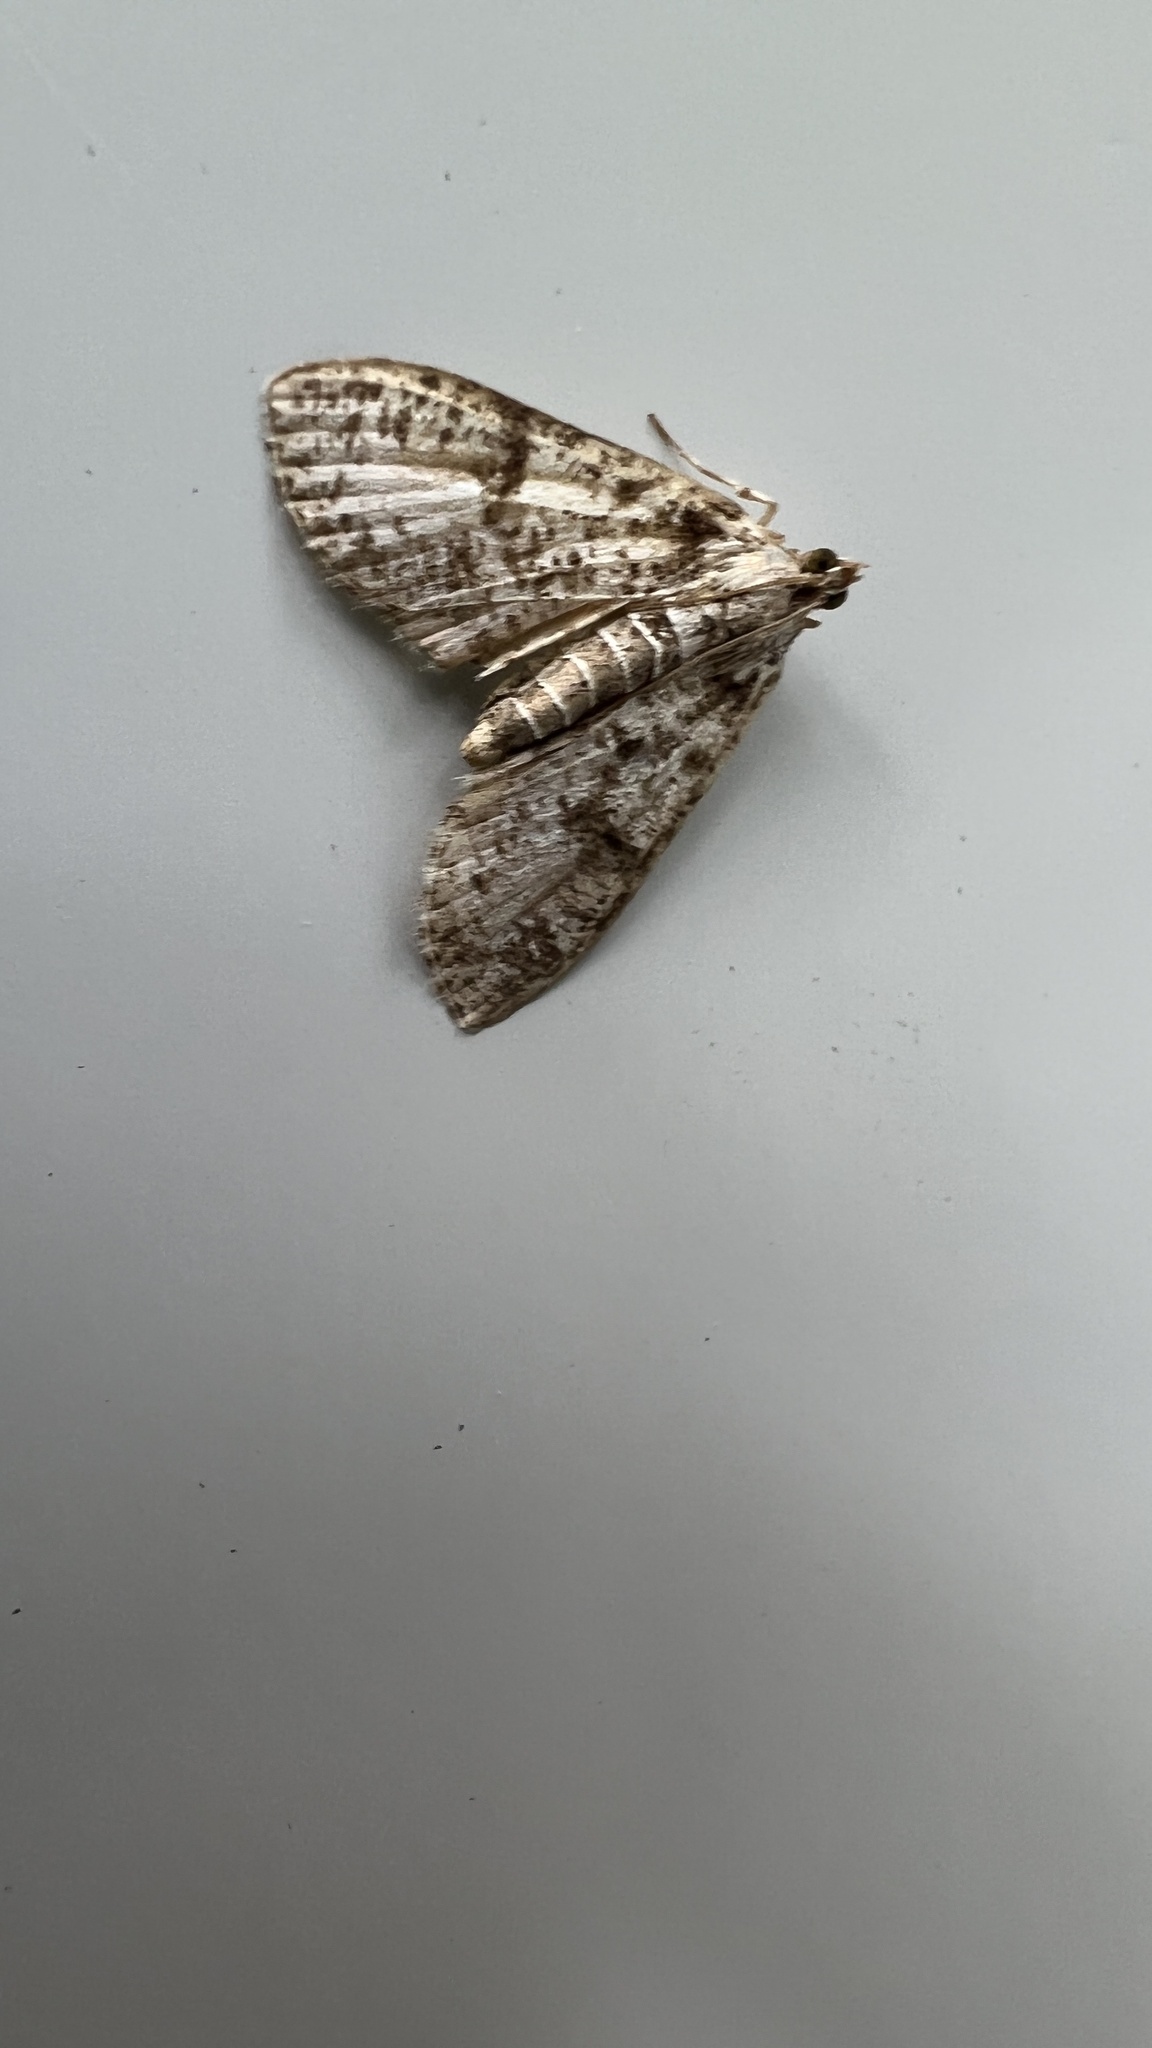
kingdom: Animalia
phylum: Arthropoda
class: Insecta
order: Lepidoptera
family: Crambidae
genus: Palpita
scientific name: Palpita magniferalis
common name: Splendid palpita moth
